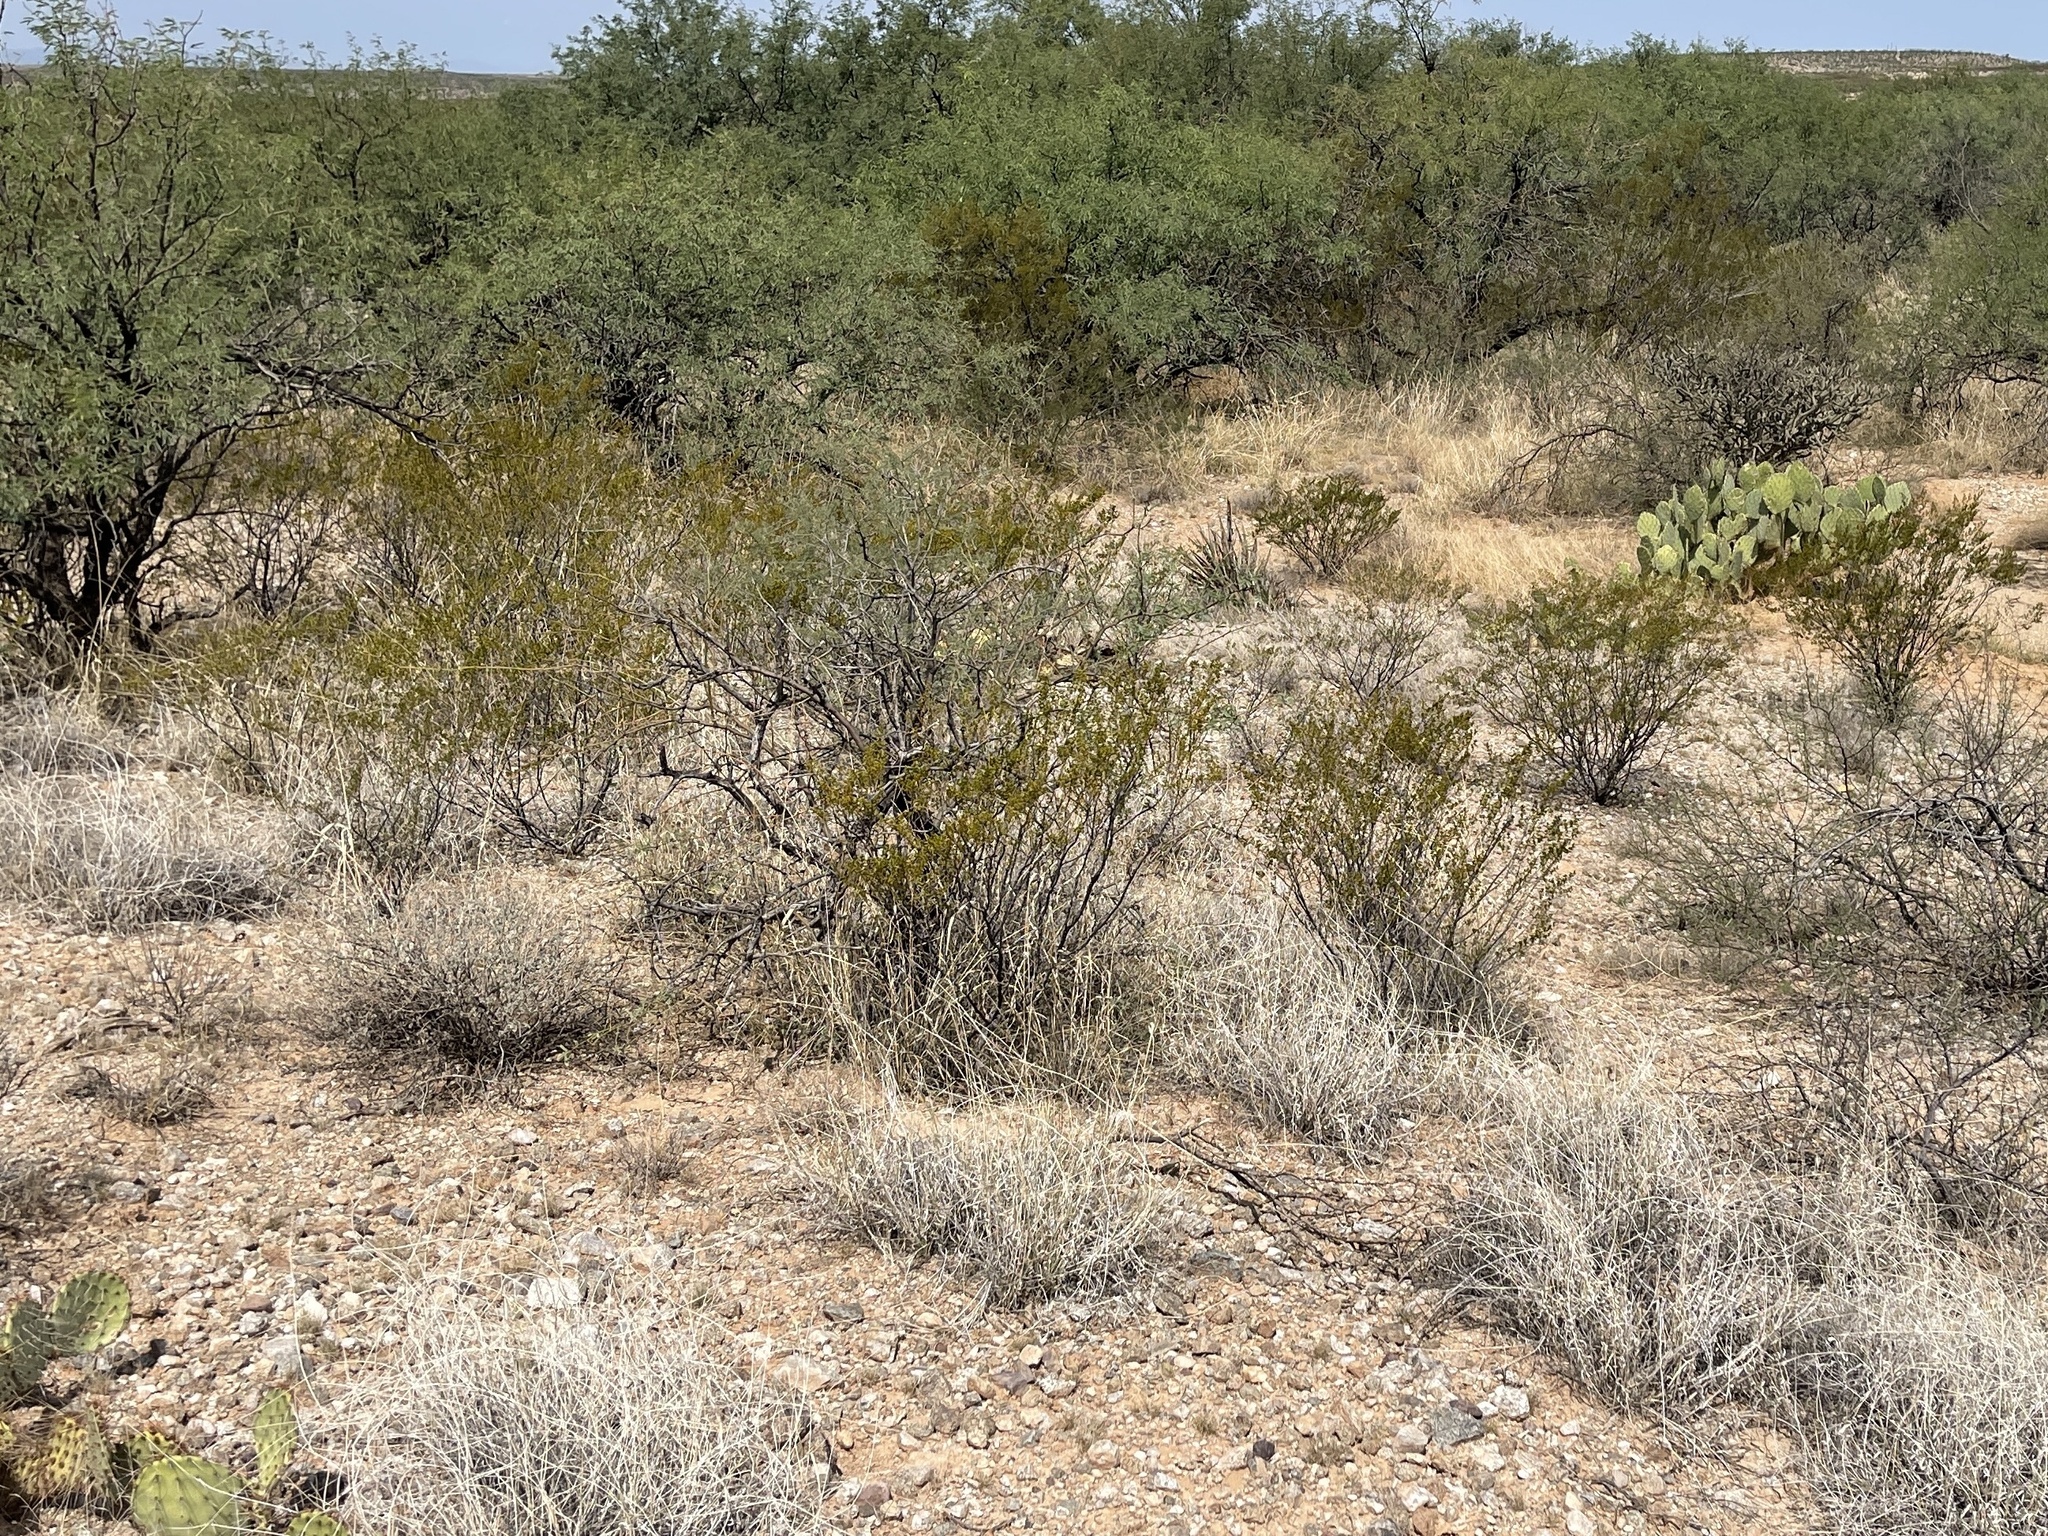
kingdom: Plantae
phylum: Tracheophyta
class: Magnoliopsida
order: Zygophyllales
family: Zygophyllaceae
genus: Larrea
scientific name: Larrea tridentata
